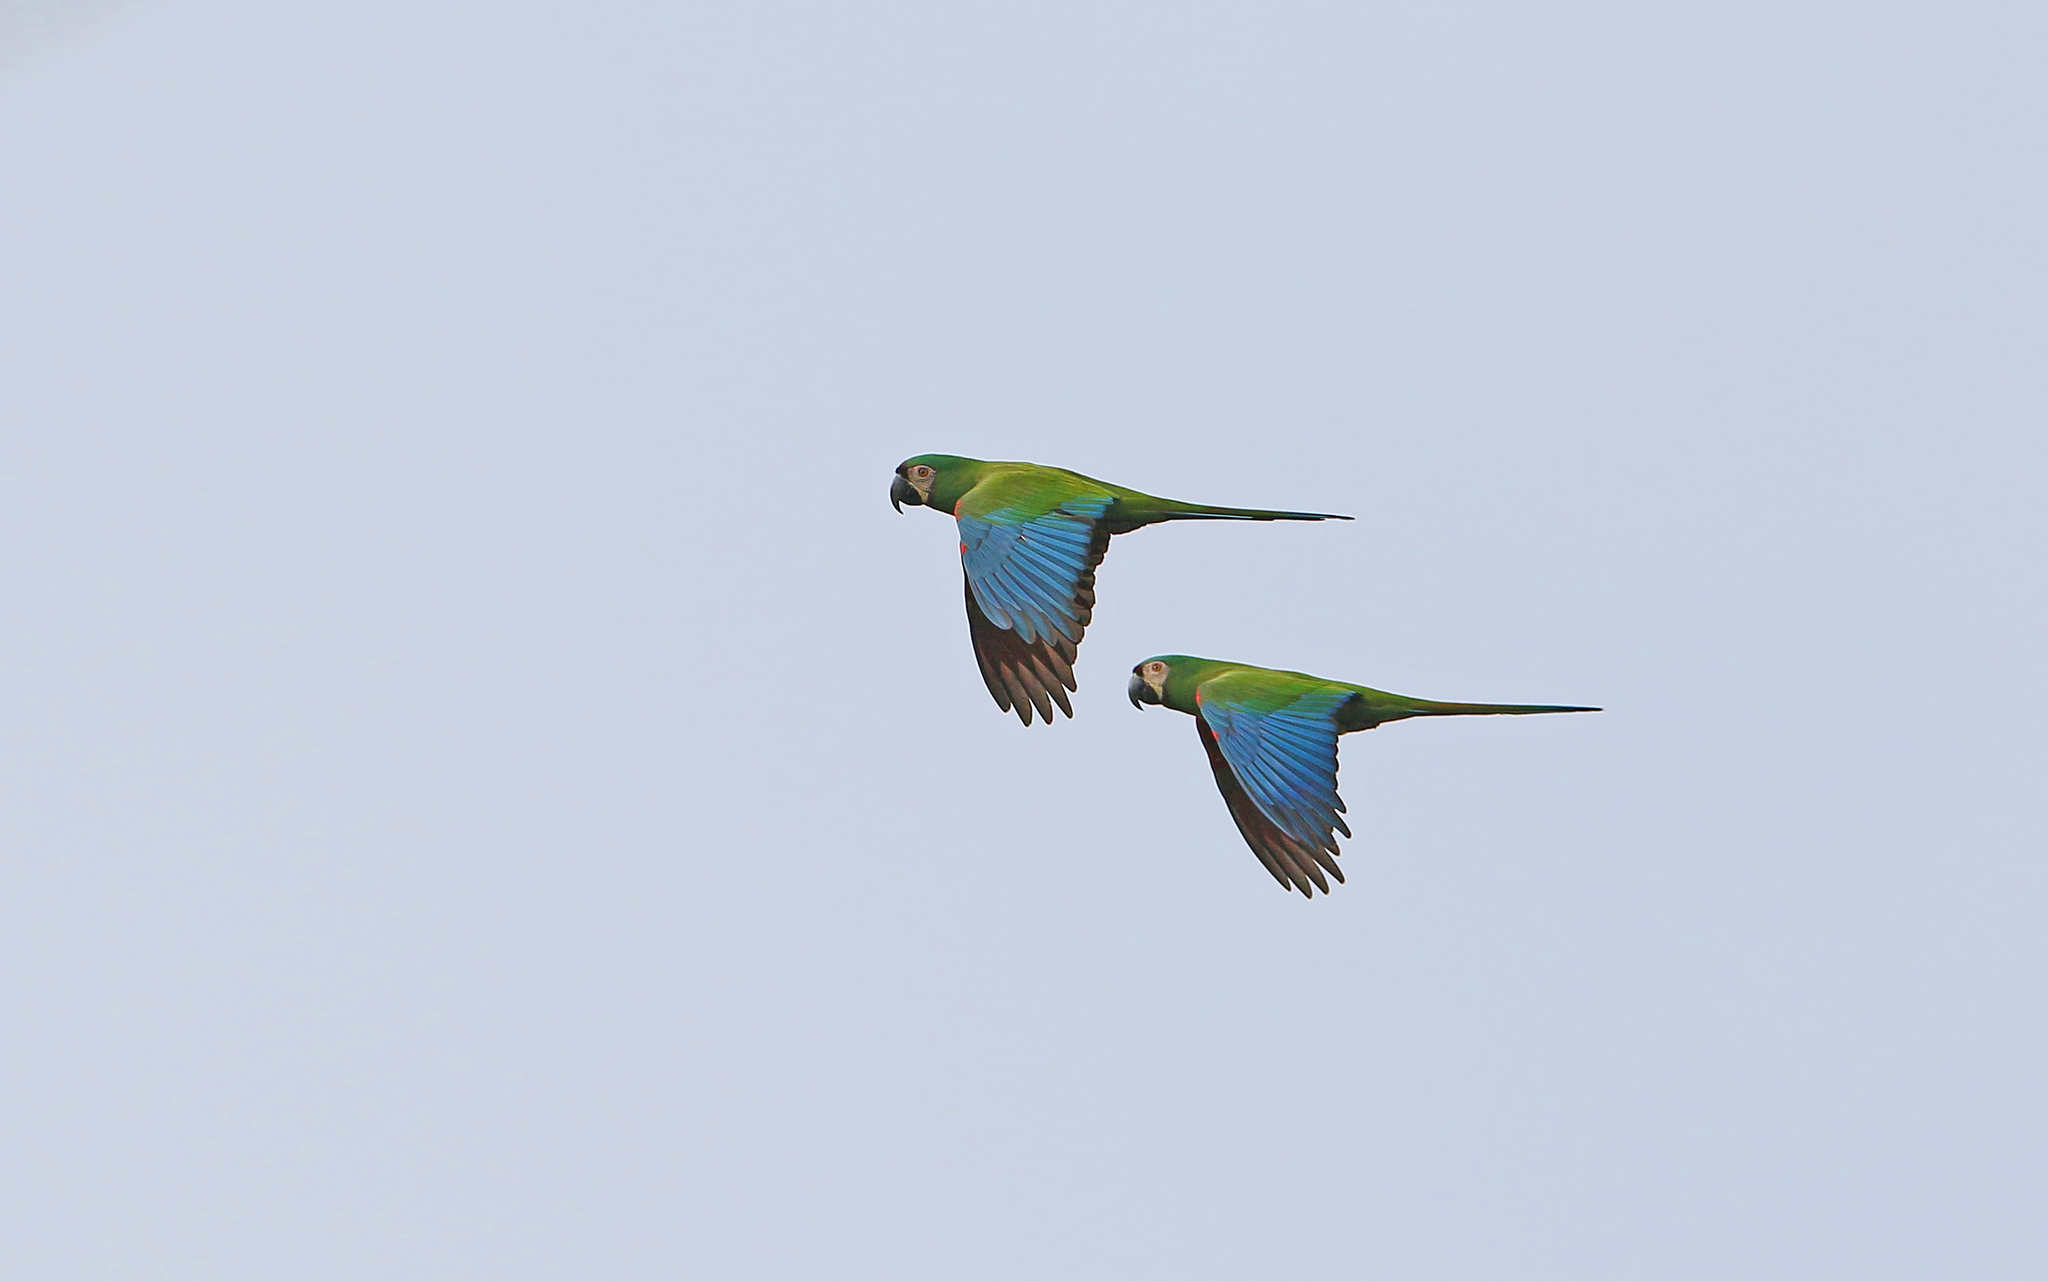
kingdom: Animalia
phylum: Chordata
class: Aves
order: Psittaciformes
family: Psittacidae
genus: Ara
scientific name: Ara severus
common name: Chestnut-fronted macaw
